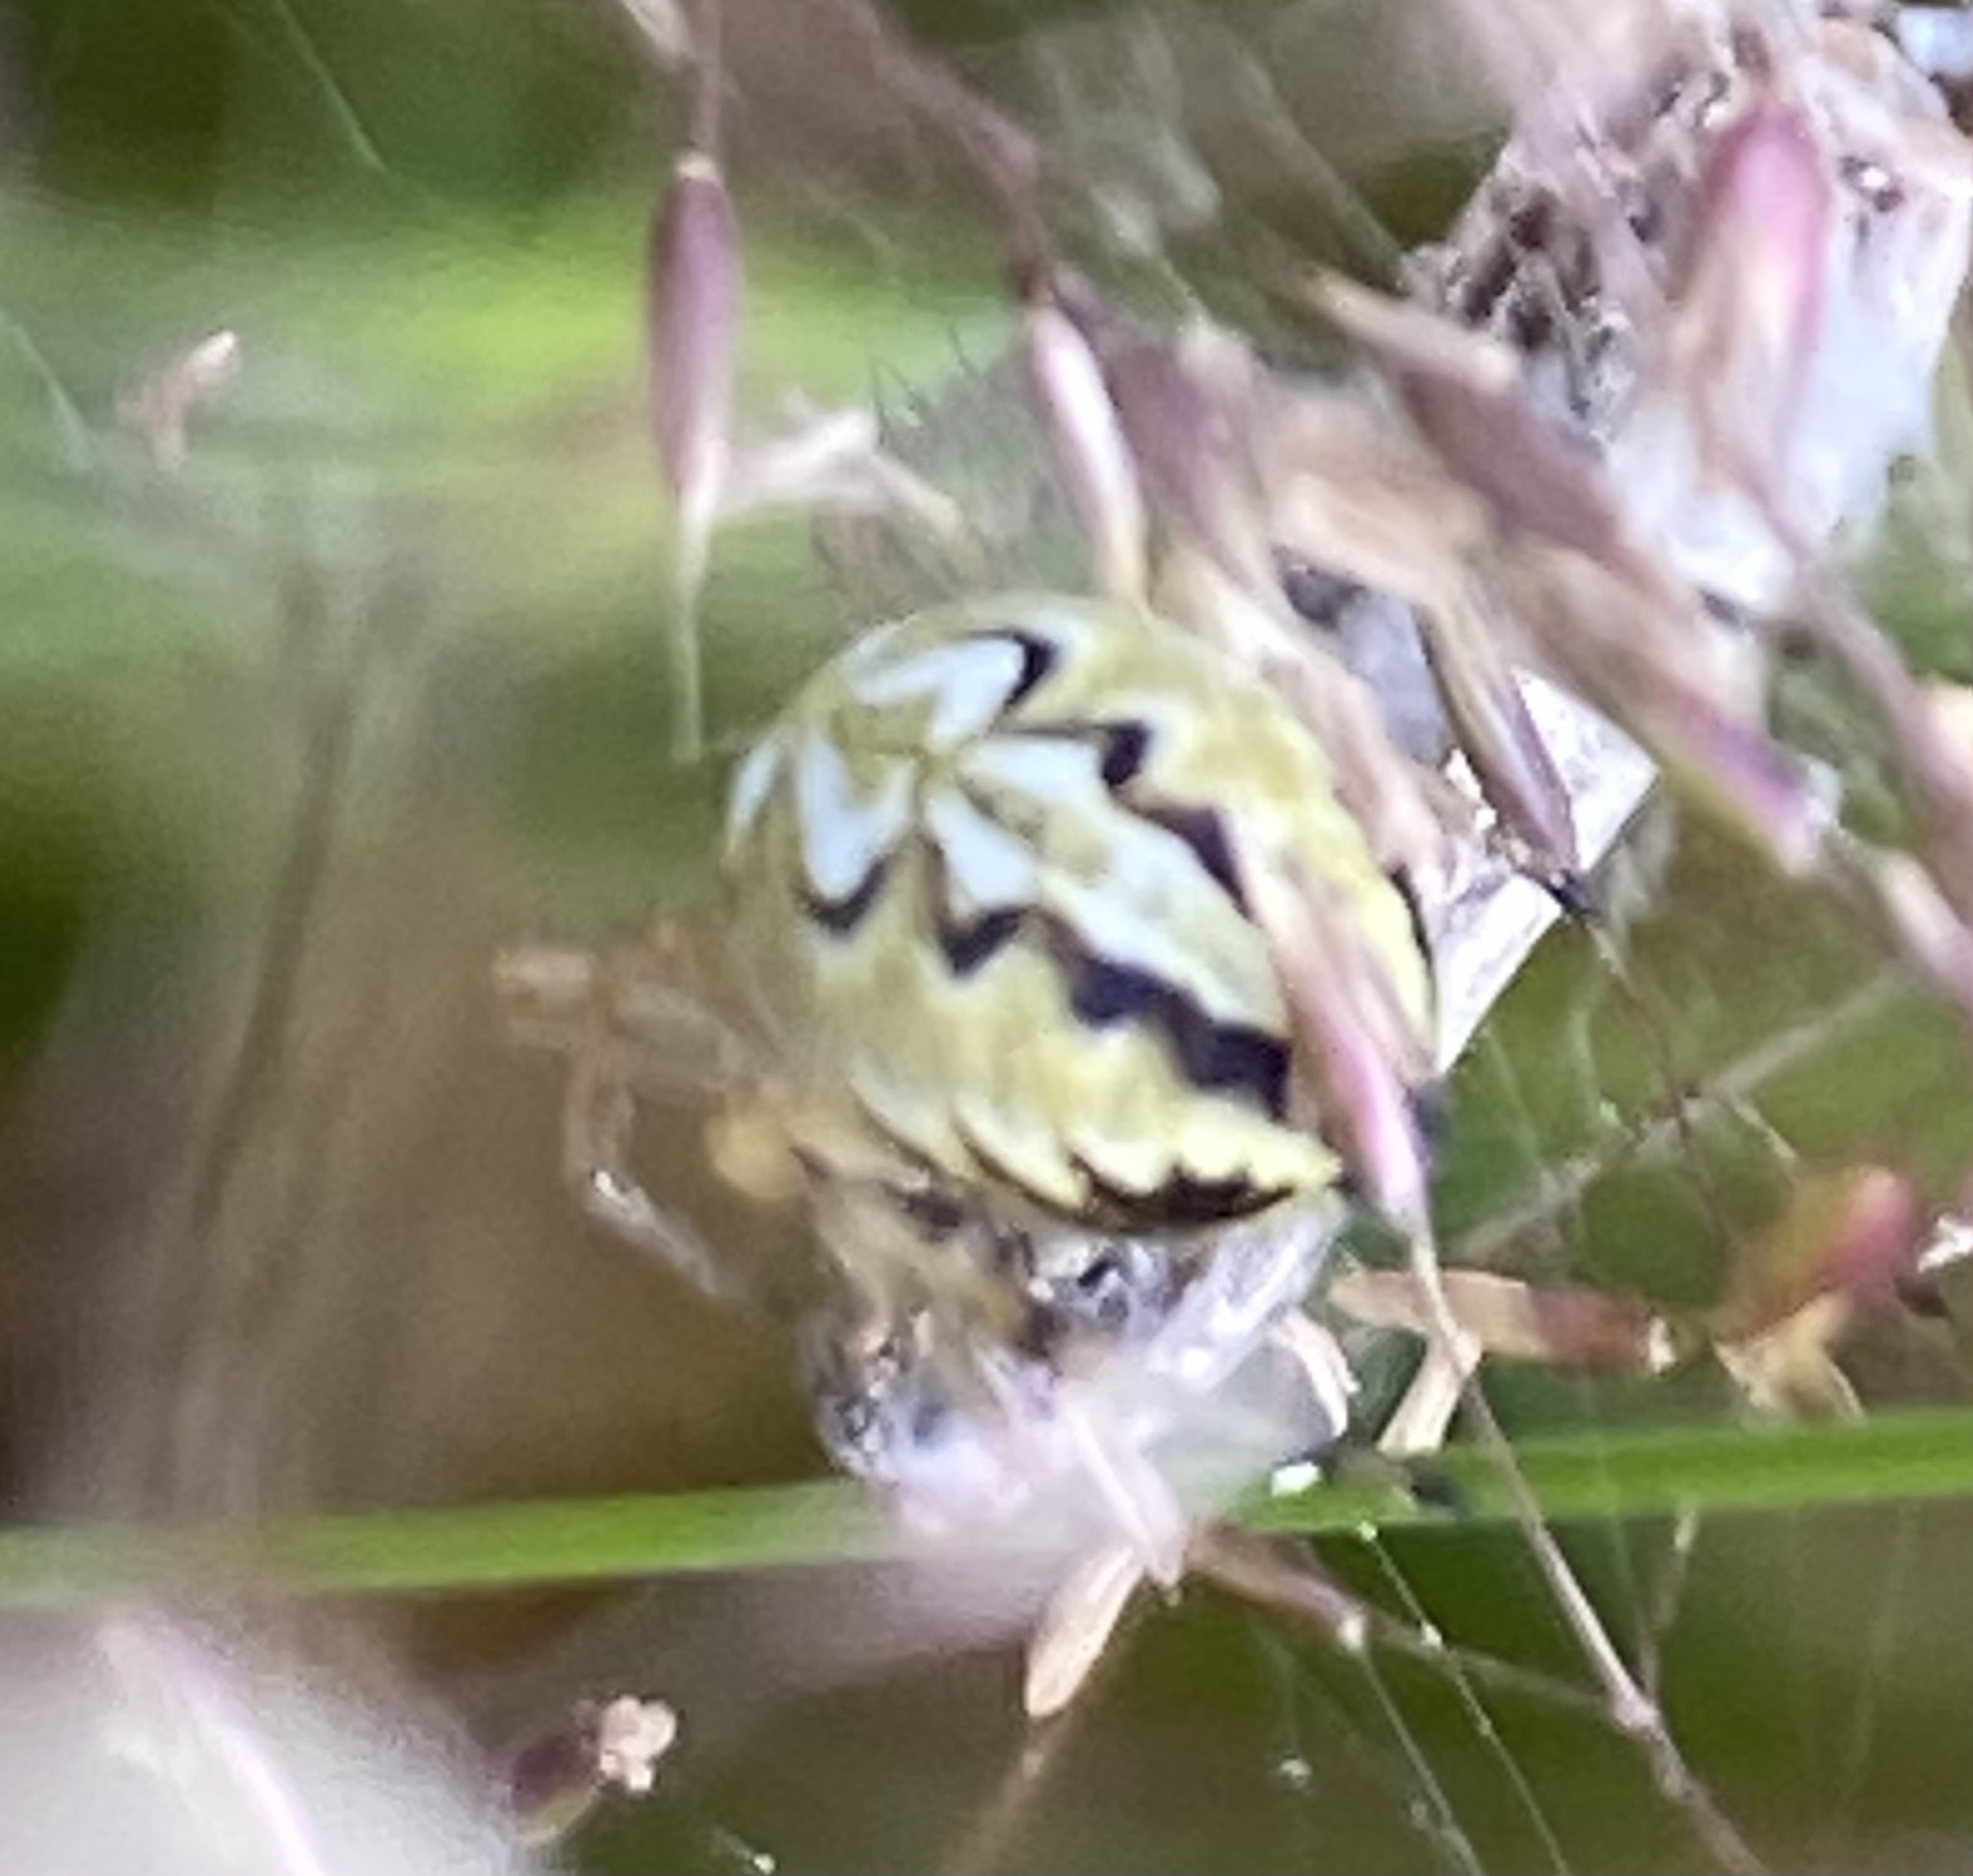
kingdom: Animalia
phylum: Arthropoda
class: Arachnida
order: Araneae
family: Araneidae
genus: Neoscona
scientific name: Neoscona adianta
